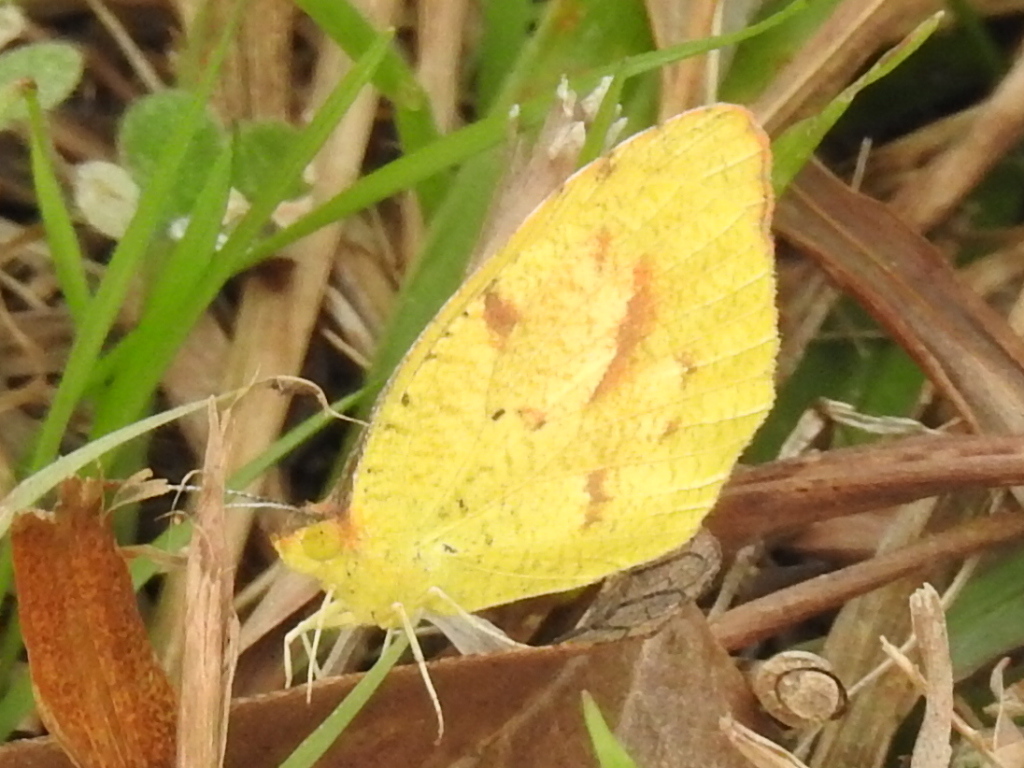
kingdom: Animalia
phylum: Arthropoda
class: Insecta
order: Lepidoptera
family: Pieridae
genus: Abaeis
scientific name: Abaeis nicippe
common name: Sleepy orange
